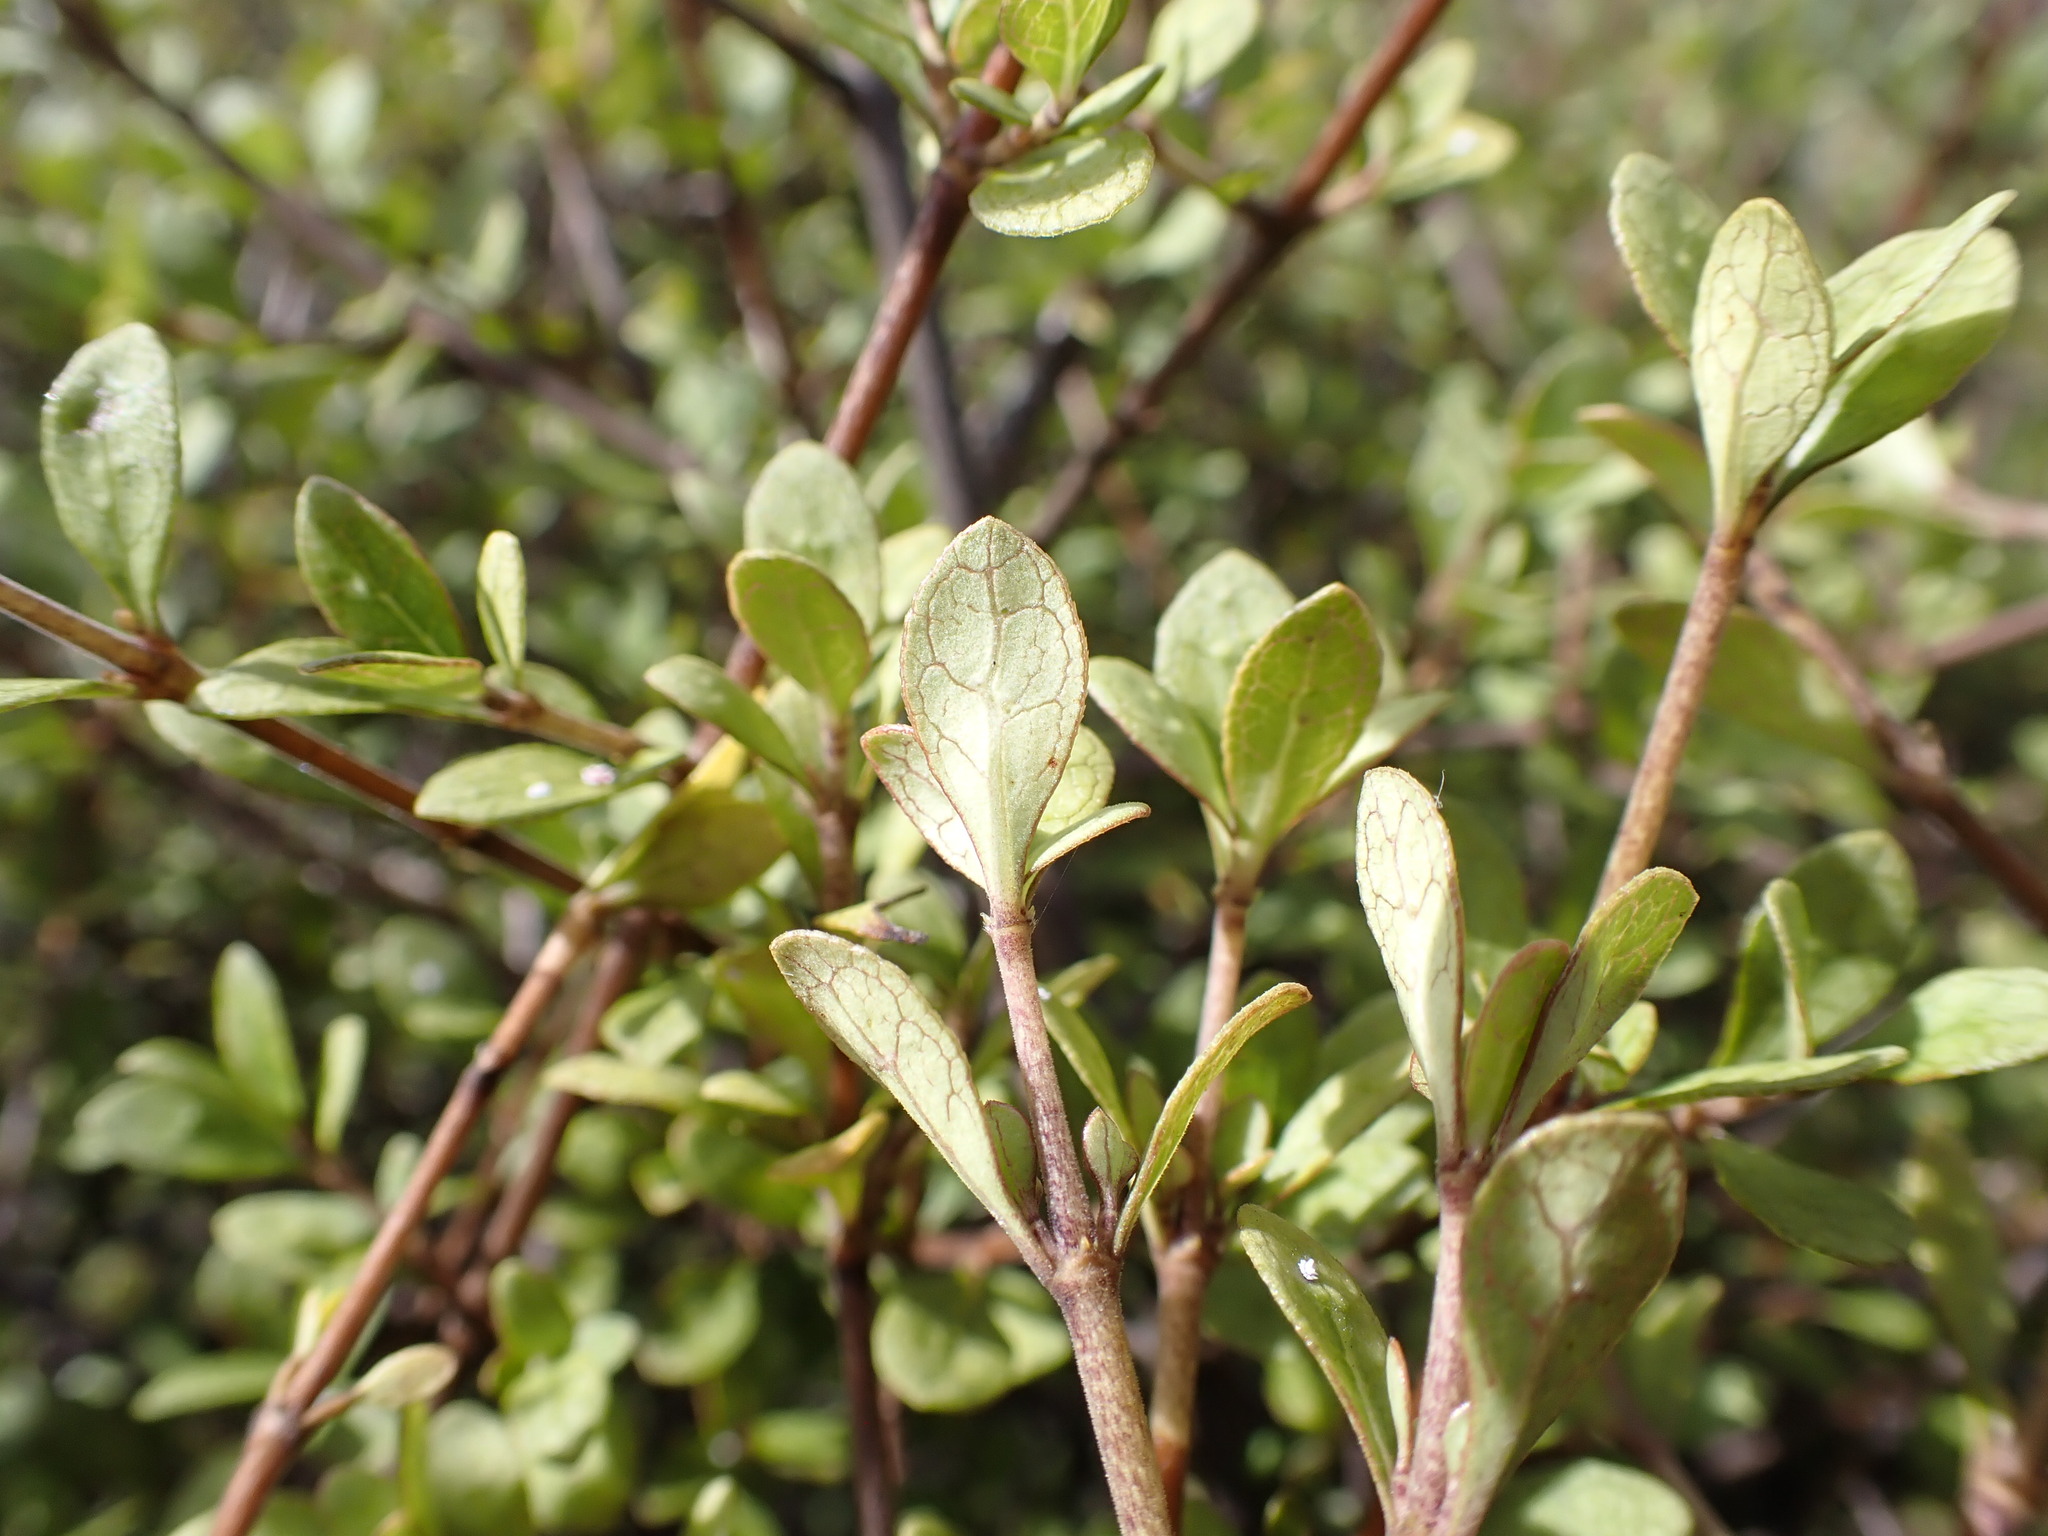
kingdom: Plantae
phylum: Tracheophyta
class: Magnoliopsida
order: Gentianales
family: Rubiaceae
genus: Coprosma
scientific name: Coprosma tenuicaulis
